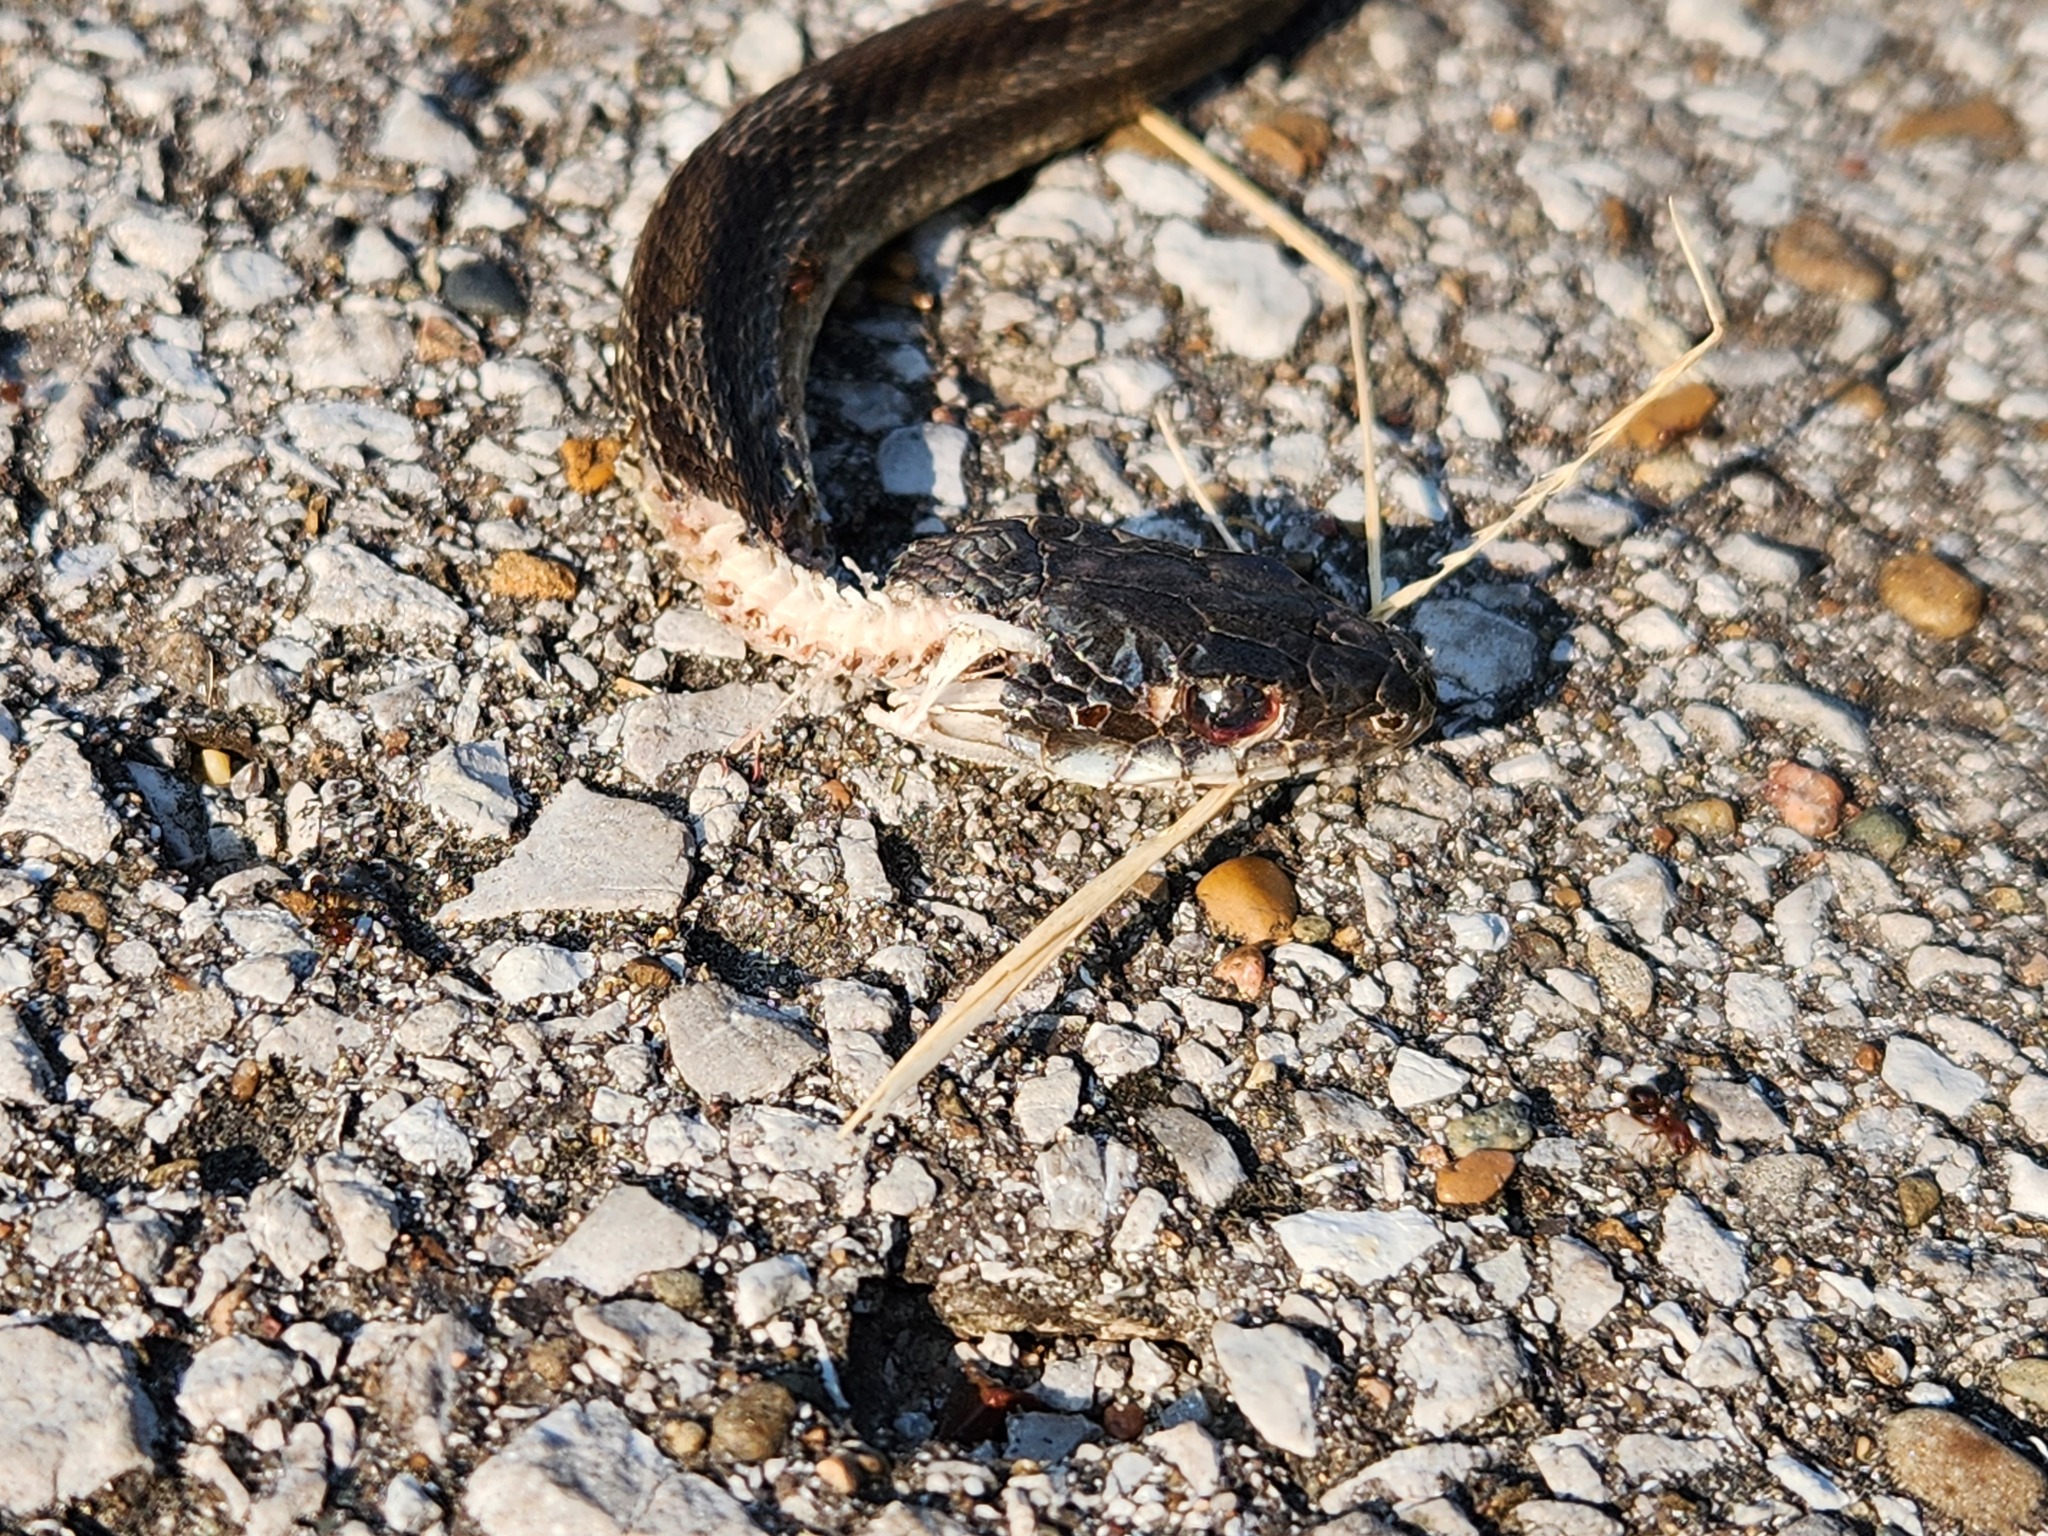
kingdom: Animalia
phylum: Chordata
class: Squamata
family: Colubridae
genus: Pantherophis
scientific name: Pantherophis spiloides
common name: Gray rat snake
